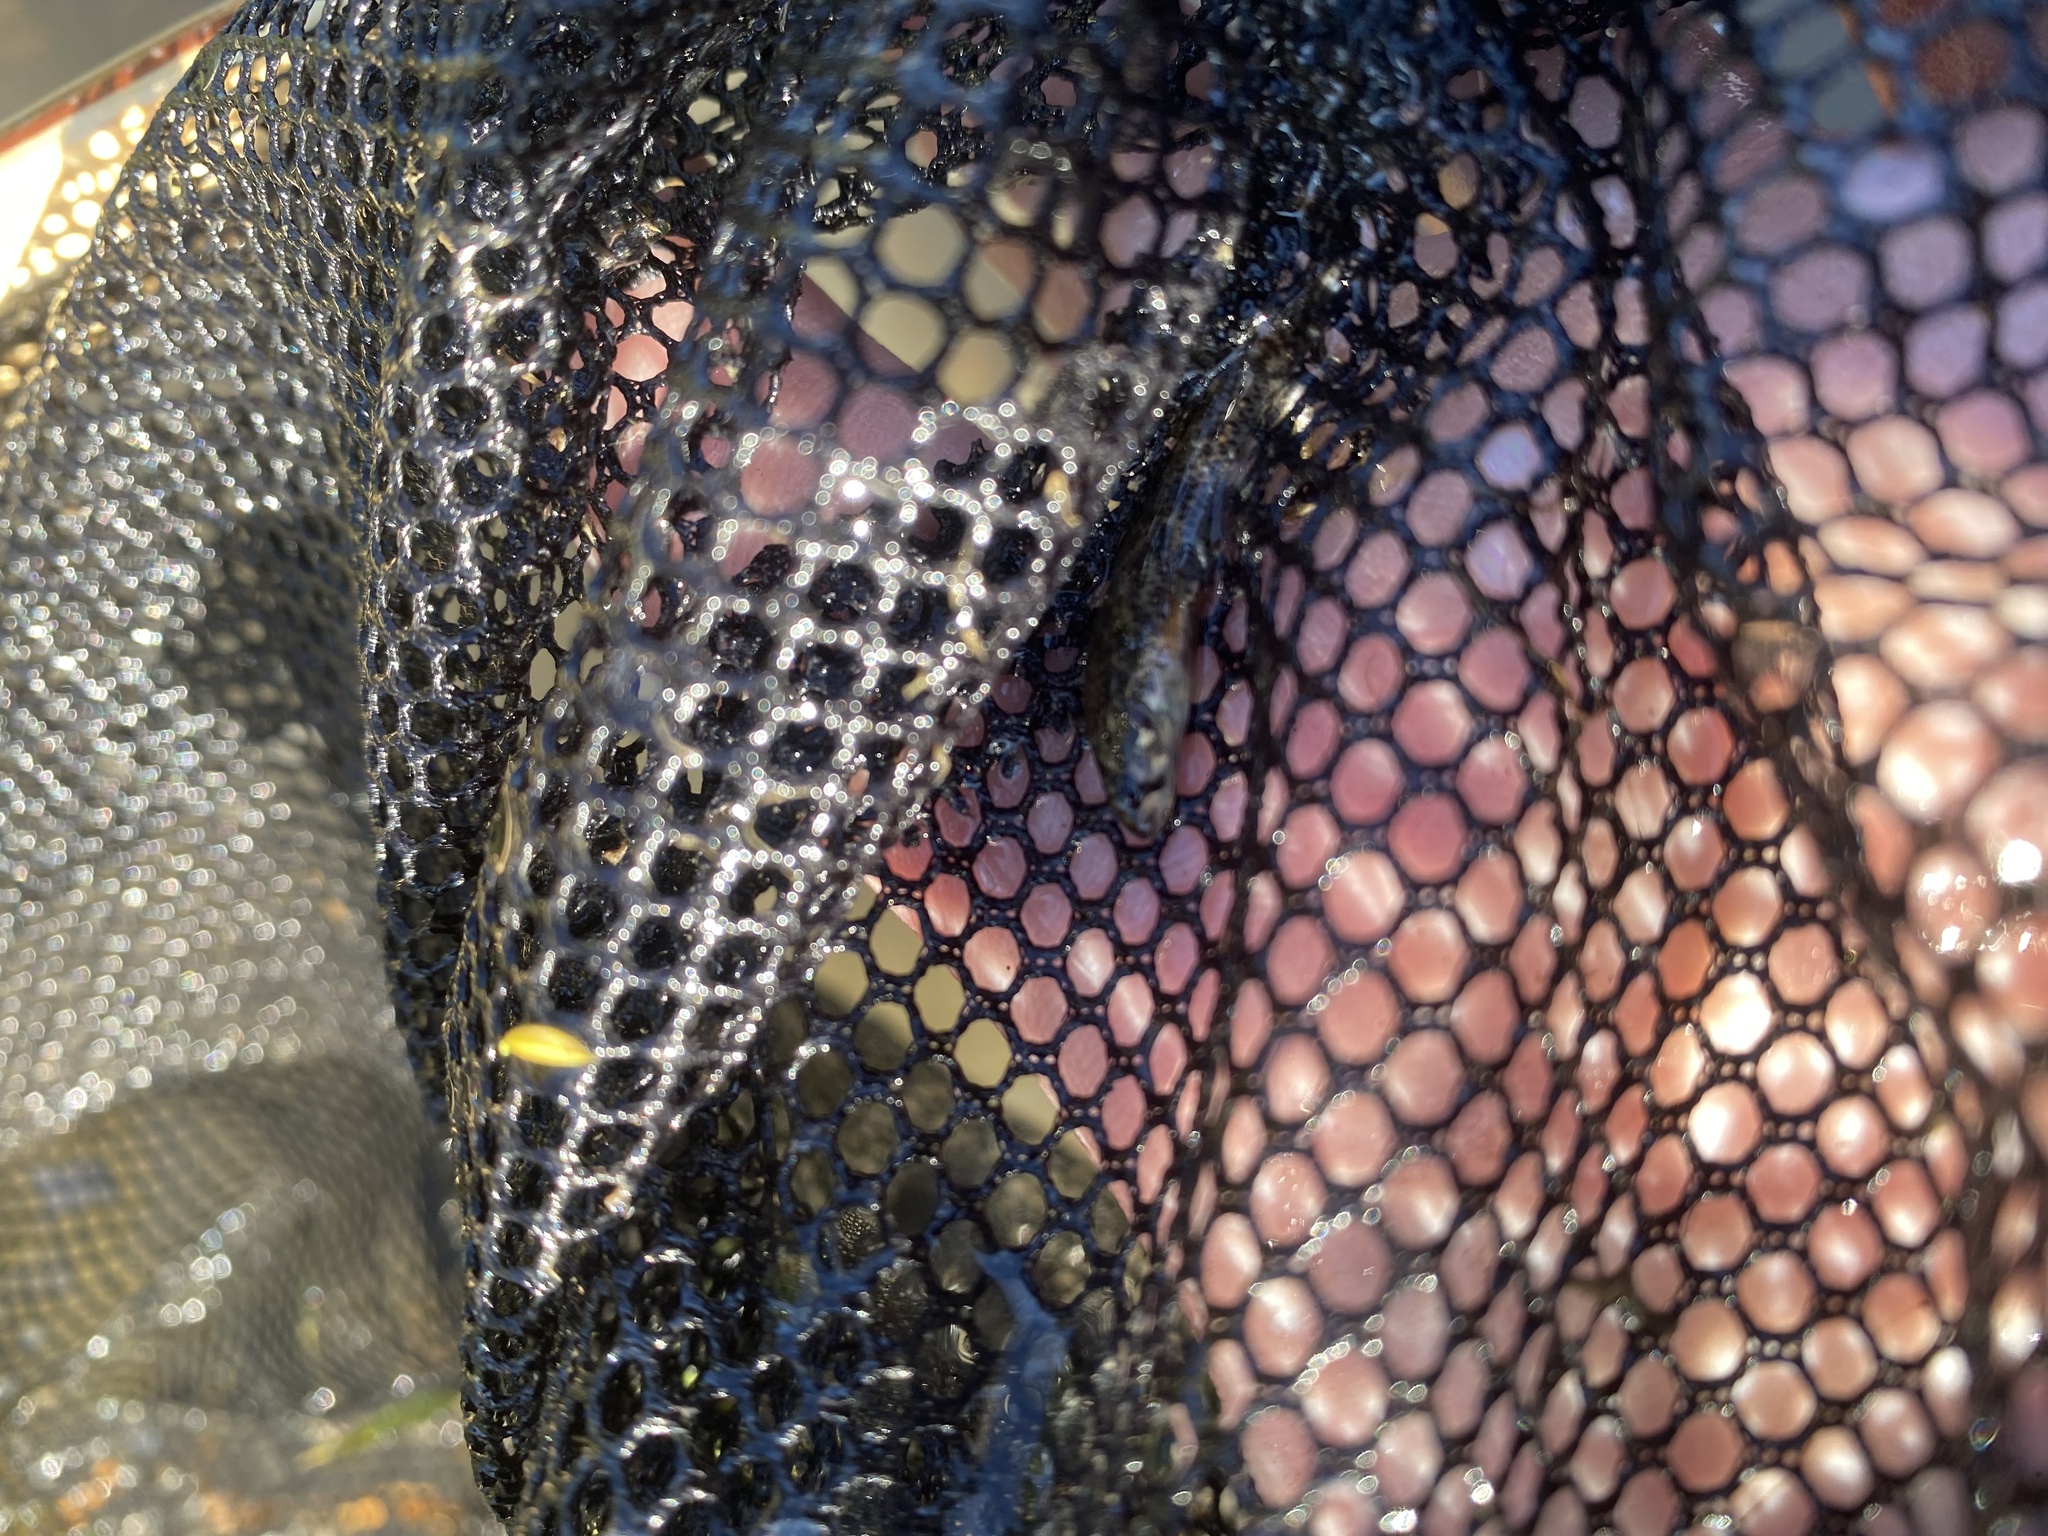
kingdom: Animalia
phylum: Chordata
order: Perciformes
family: Percidae
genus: Etheostoma
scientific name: Etheostoma microperca
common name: Least darter
